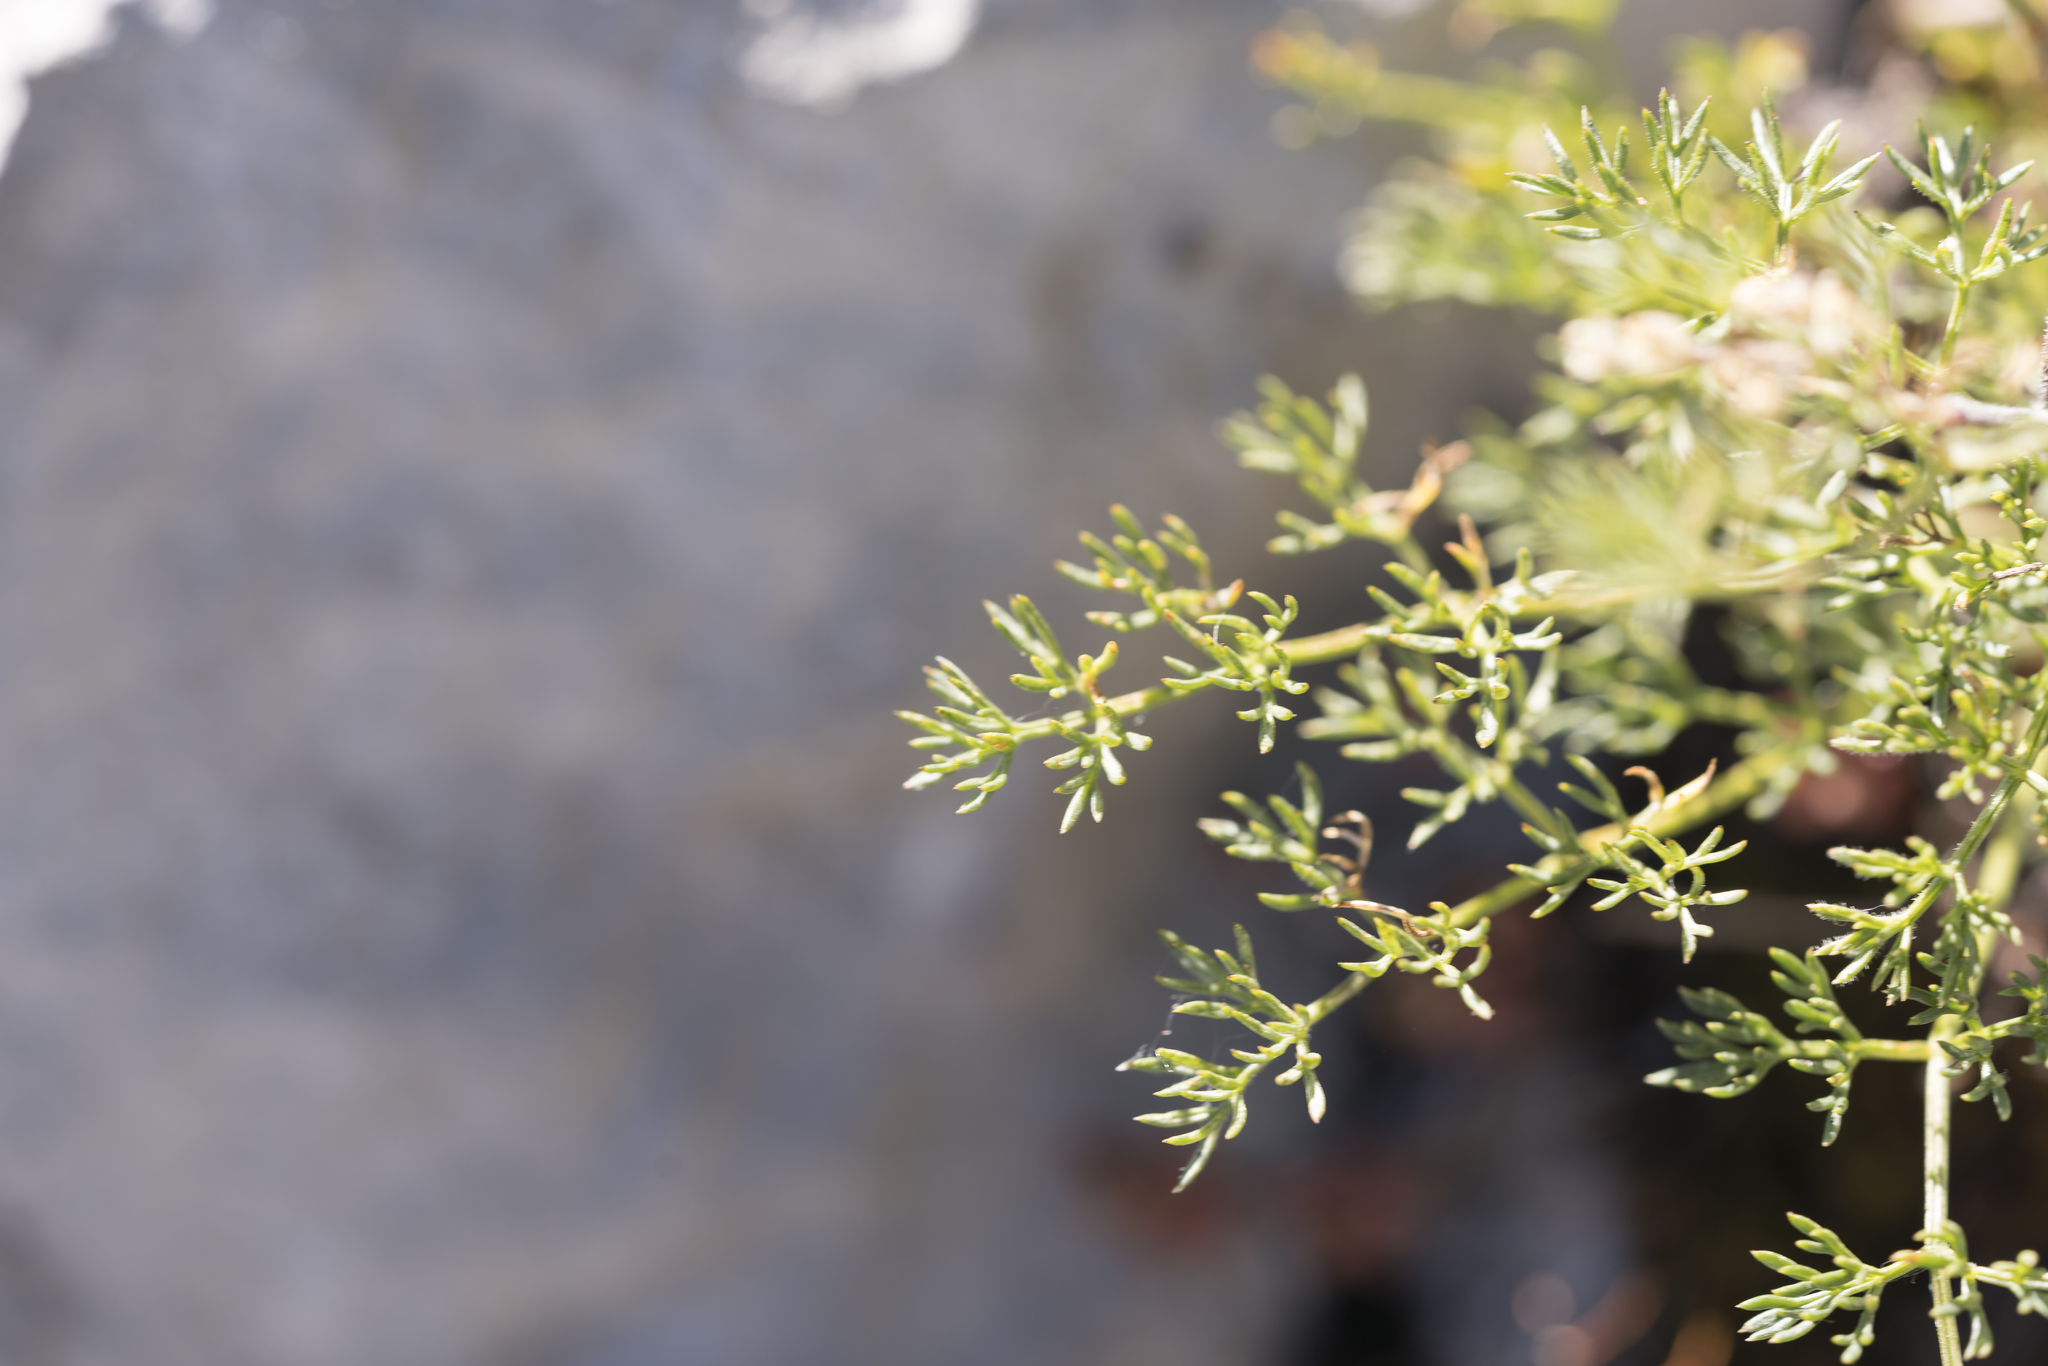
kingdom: Plantae
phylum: Tracheophyta
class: Magnoliopsida
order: Apiales
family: Apiaceae
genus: Athamanta
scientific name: Athamanta cretensis
